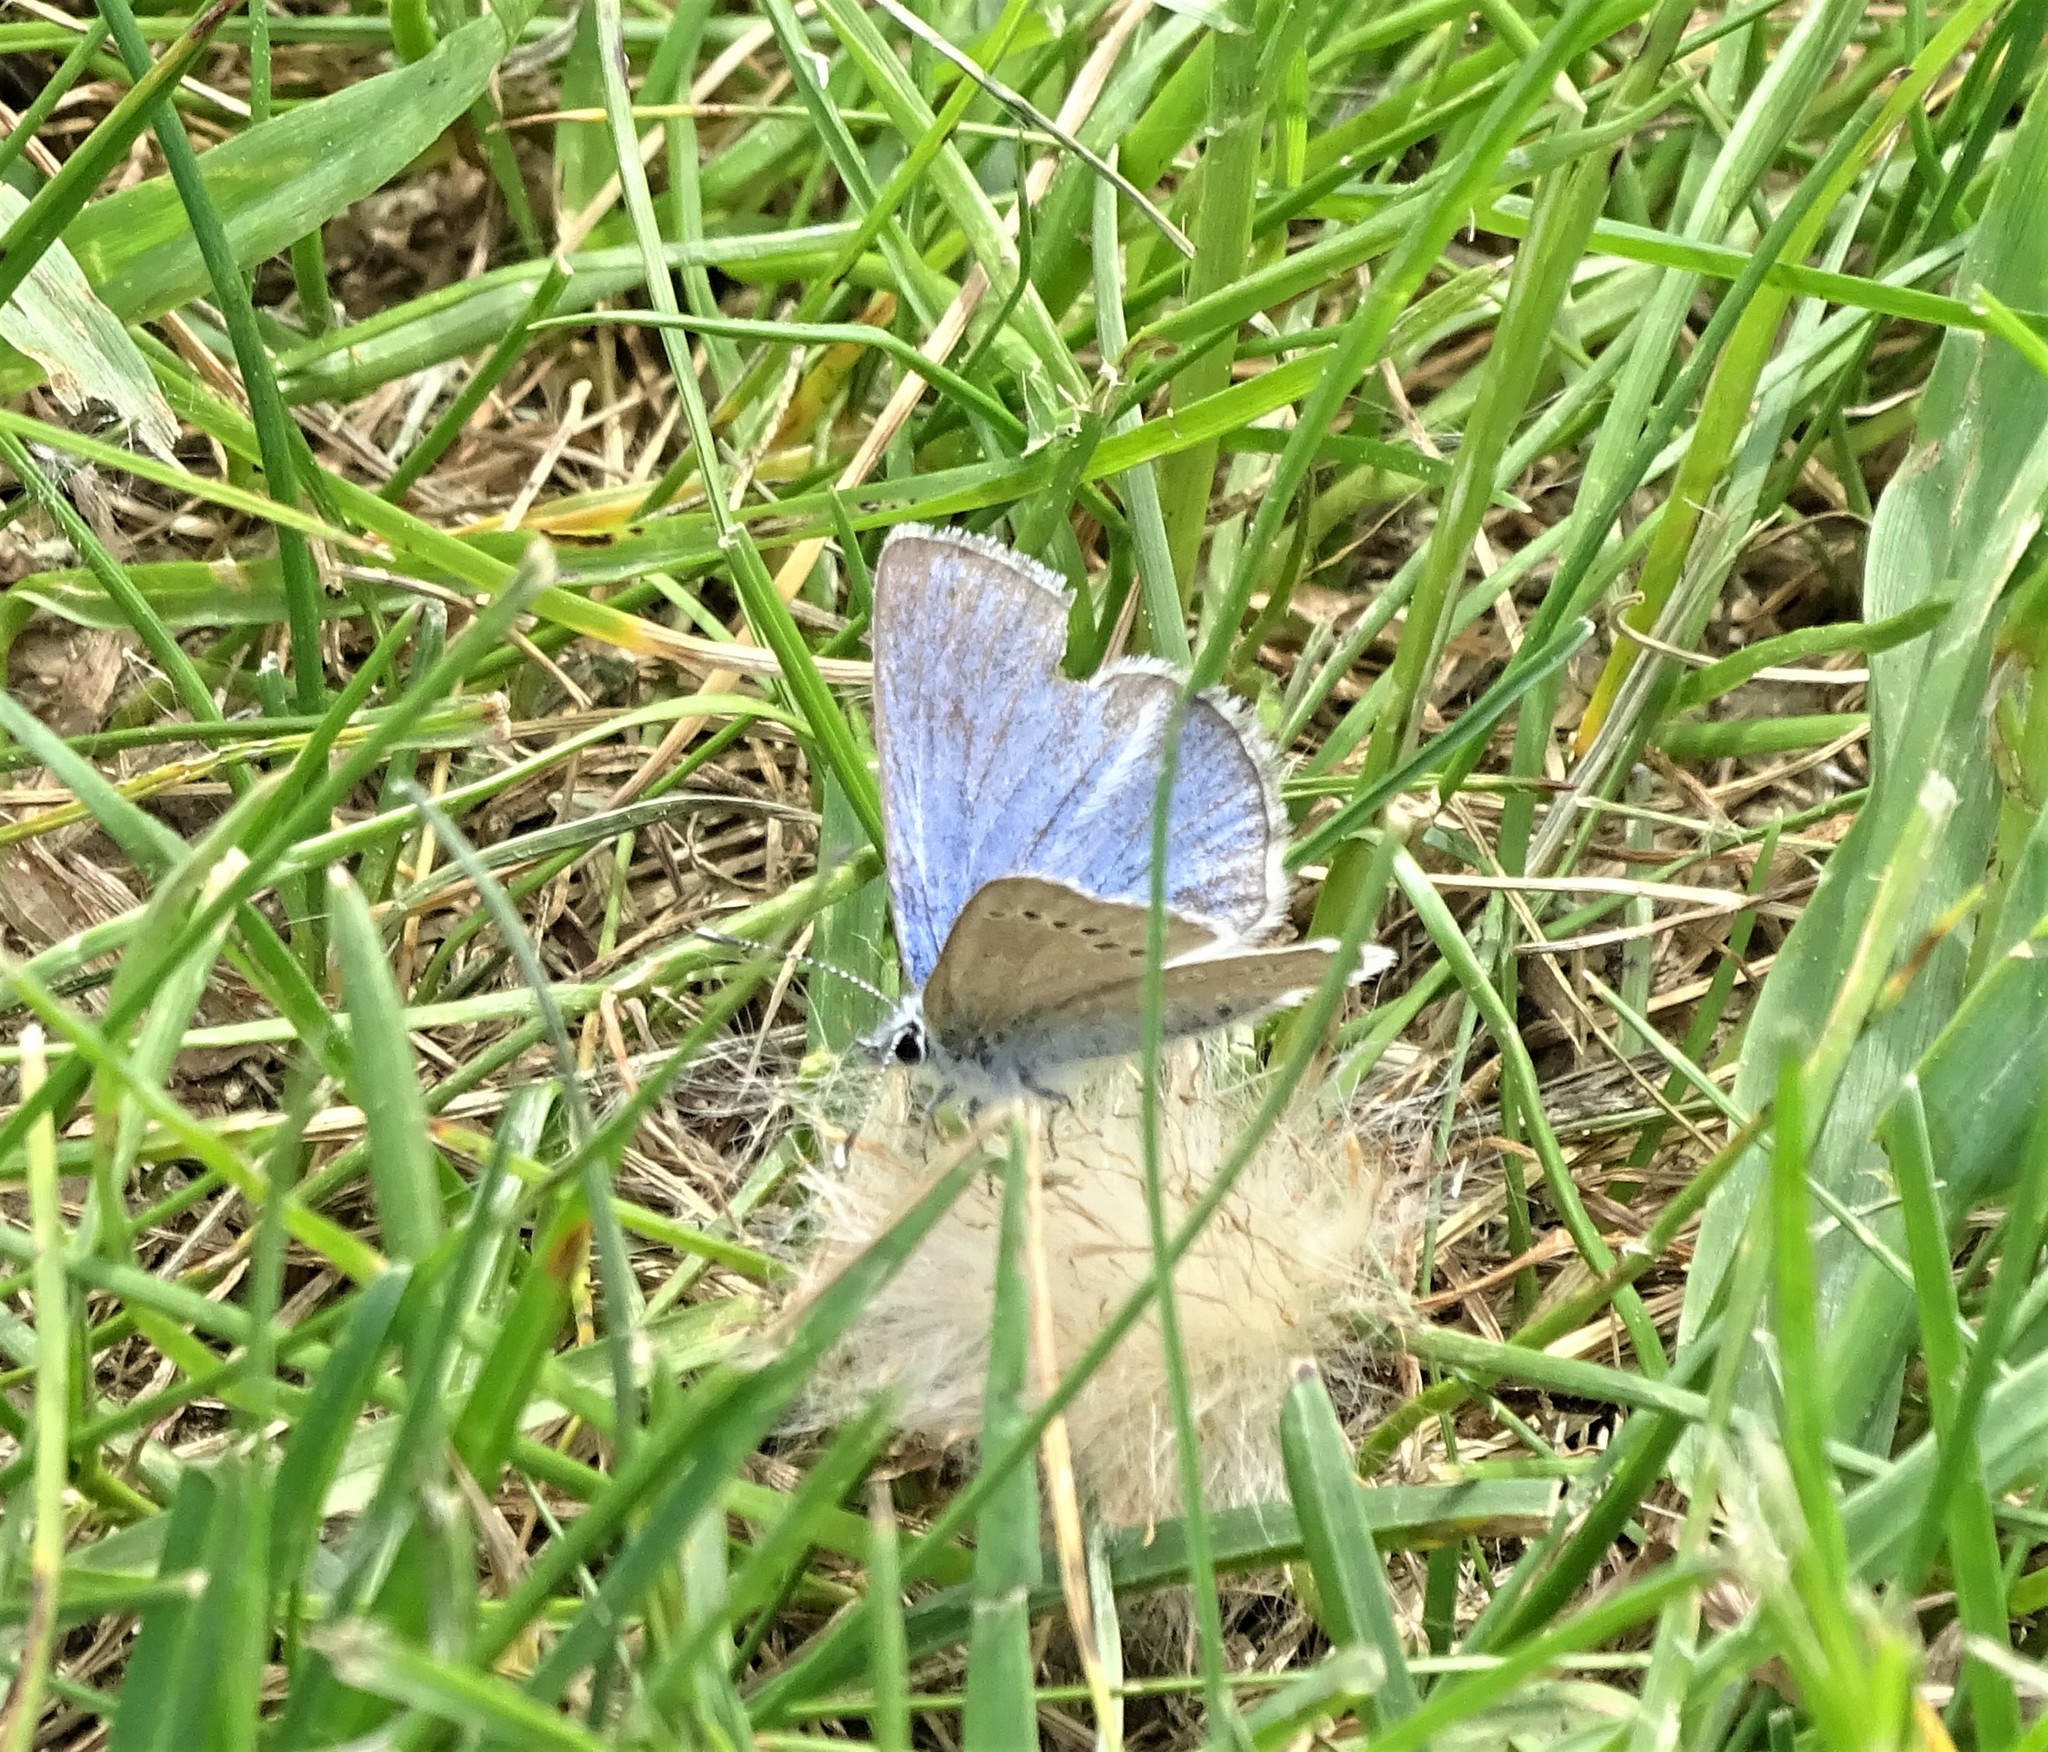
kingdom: Animalia
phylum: Arthropoda
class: Insecta
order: Lepidoptera
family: Lycaenidae
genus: Glaucopsyche
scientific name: Glaucopsyche lygdamus
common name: Silvery blue
